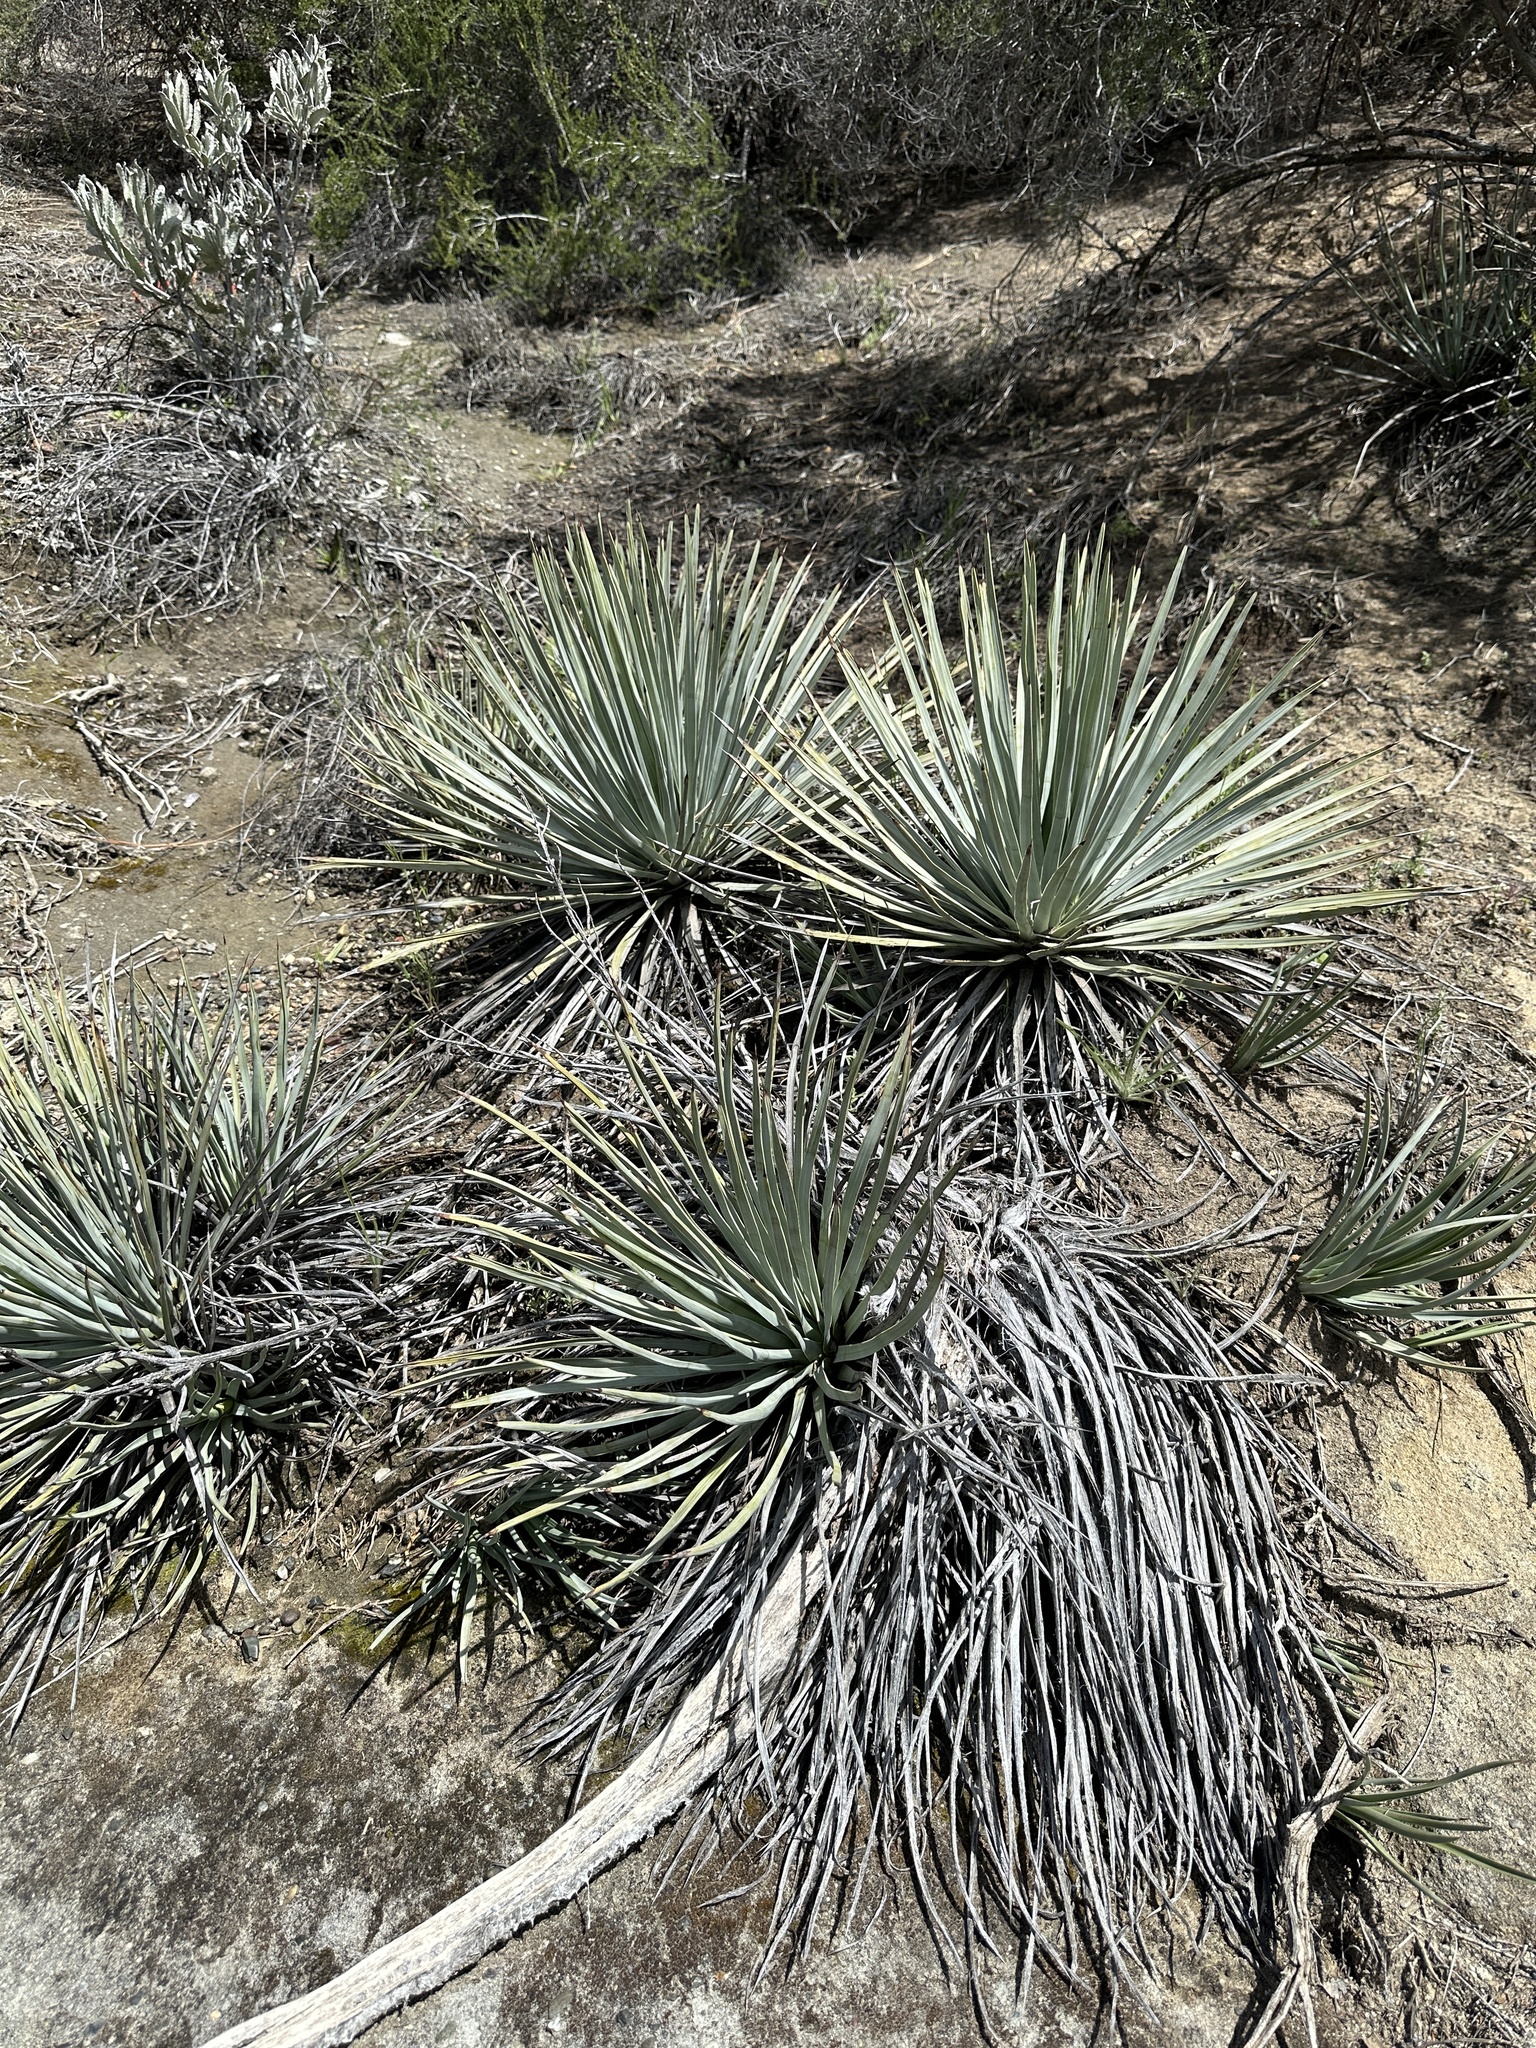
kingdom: Plantae
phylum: Tracheophyta
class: Liliopsida
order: Asparagales
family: Asparagaceae
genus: Hesperoyucca
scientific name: Hesperoyucca whipplei
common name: Our lord's-candle
